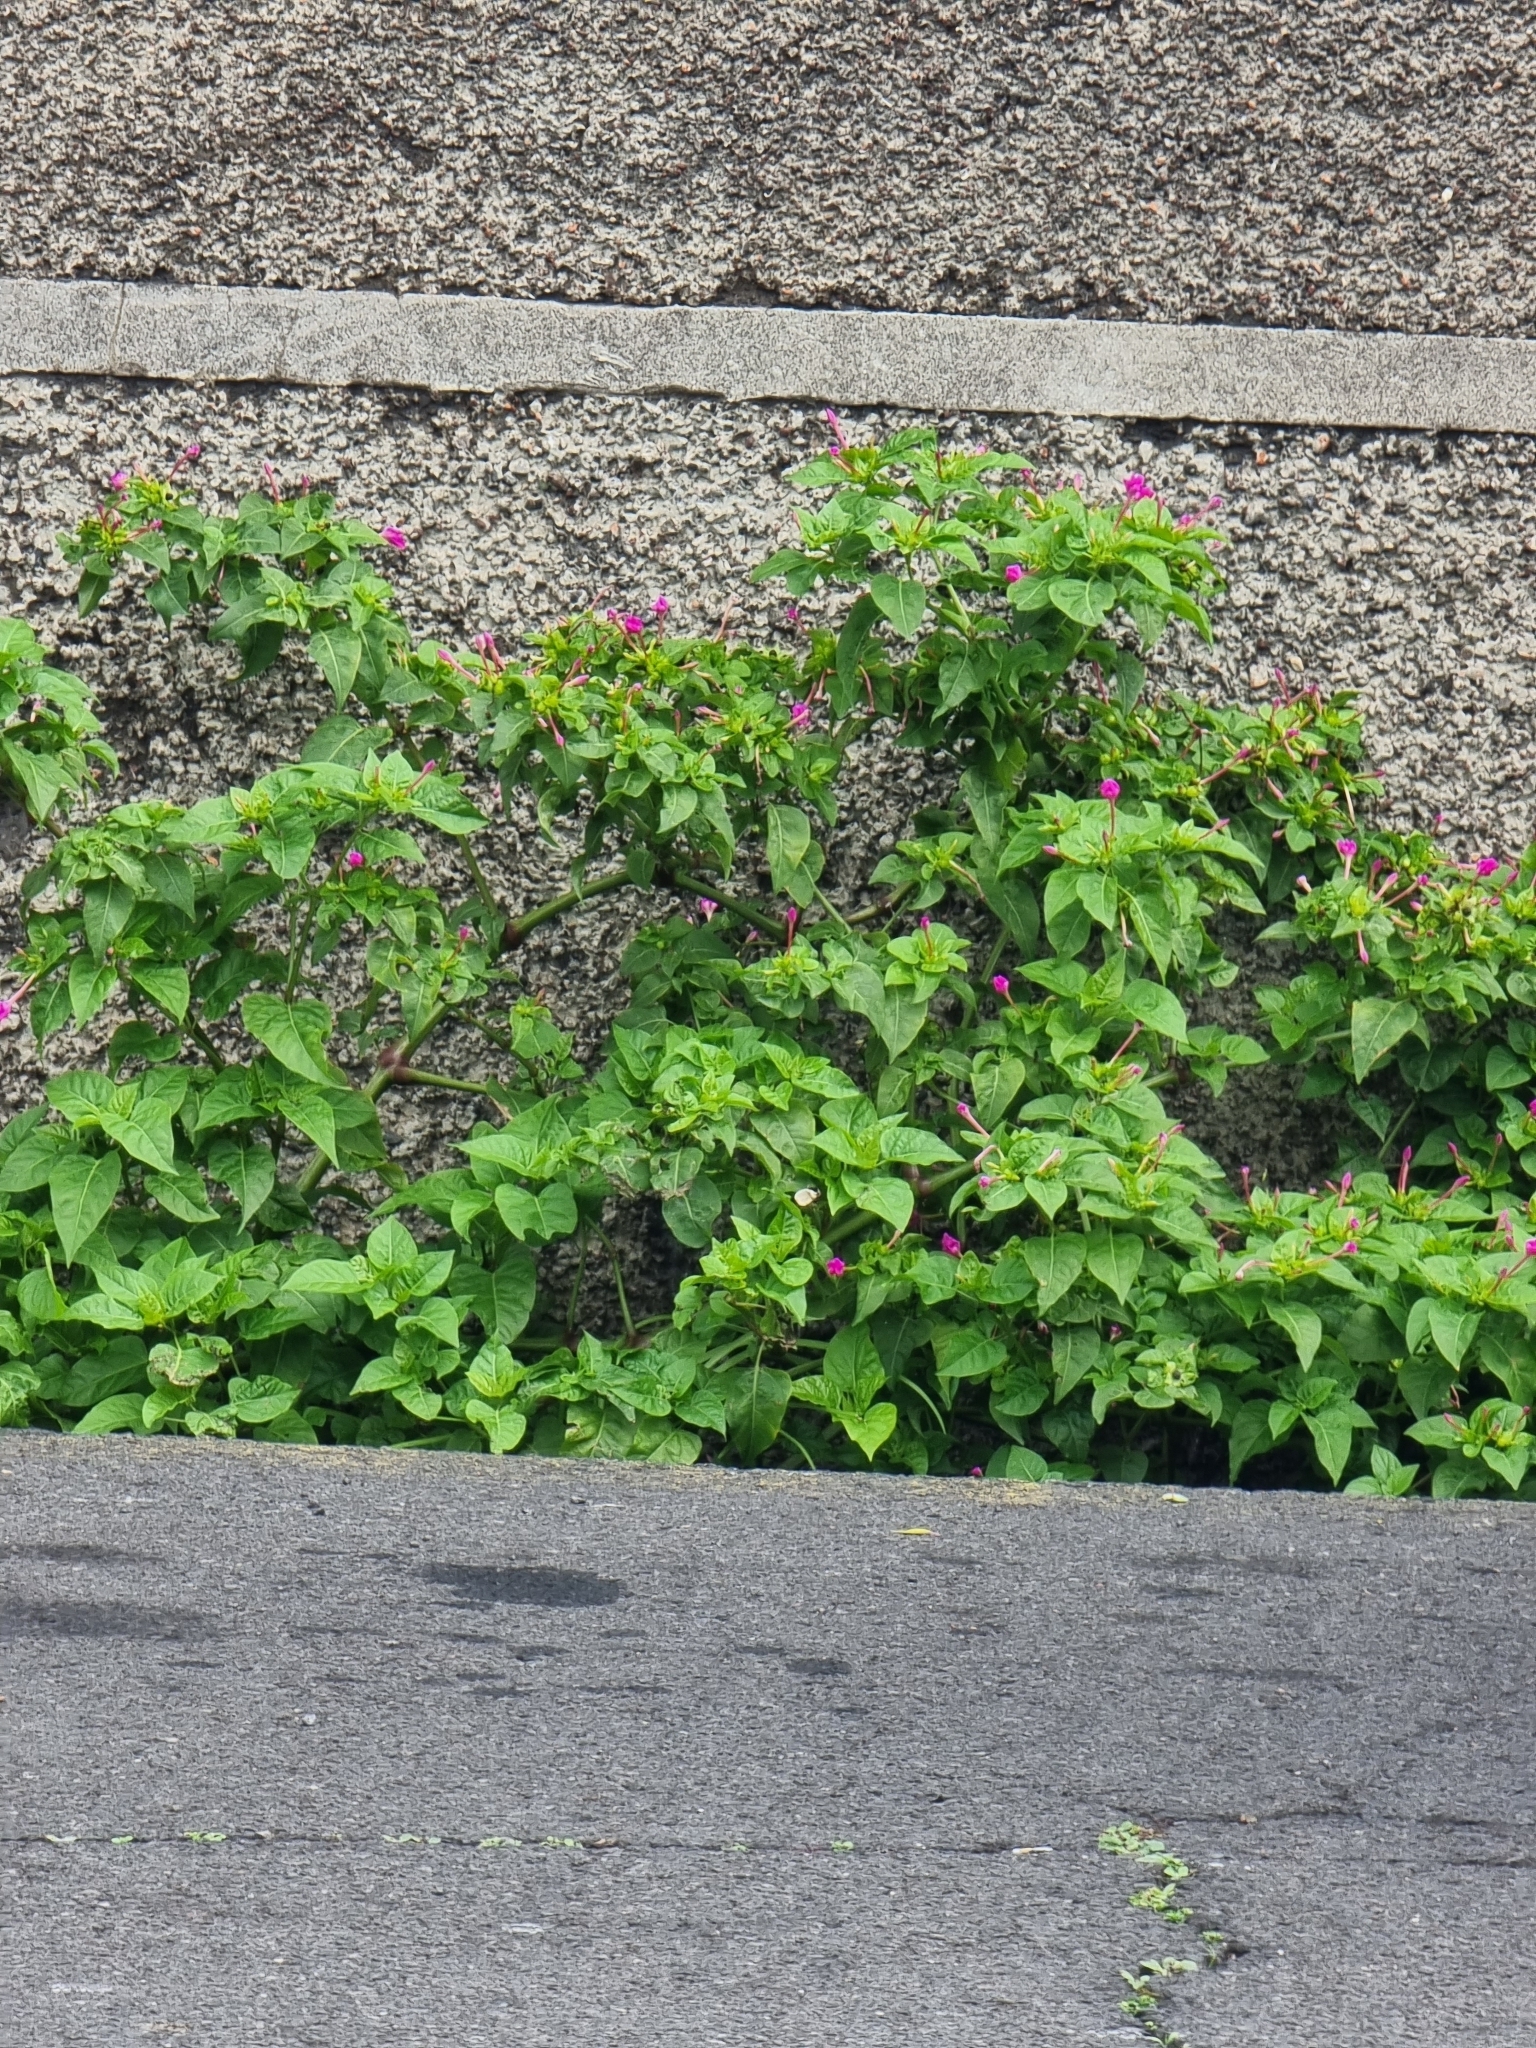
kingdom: Plantae
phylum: Tracheophyta
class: Magnoliopsida
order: Caryophyllales
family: Nyctaginaceae
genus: Mirabilis
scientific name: Mirabilis jalapa
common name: Marvel-of-peru
